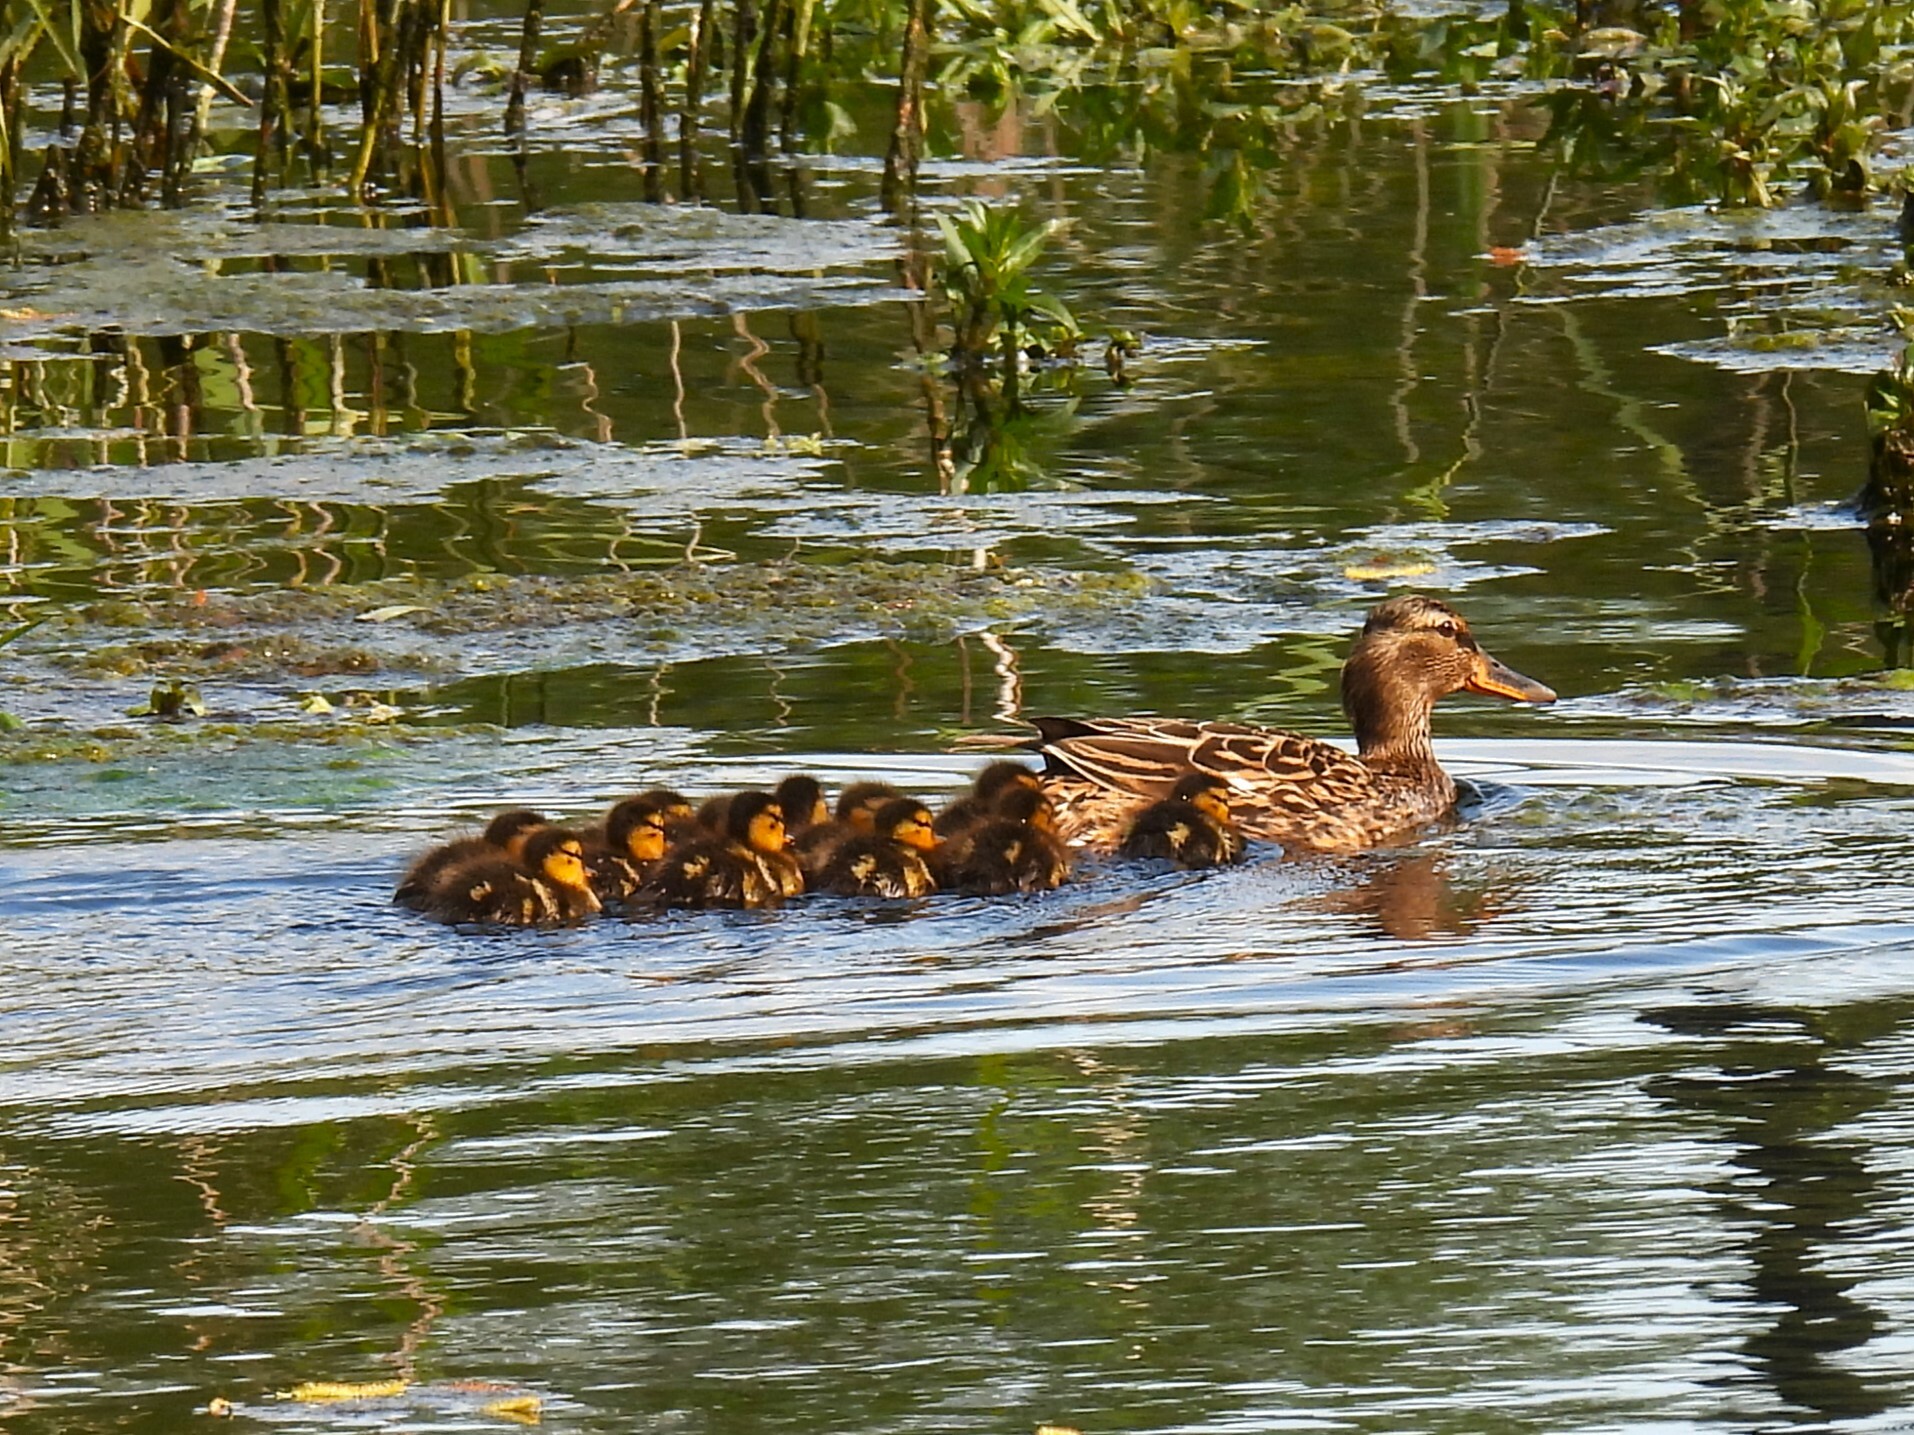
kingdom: Animalia
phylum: Chordata
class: Aves
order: Anseriformes
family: Anatidae
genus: Anas
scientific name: Anas platyrhynchos
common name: Mallard
